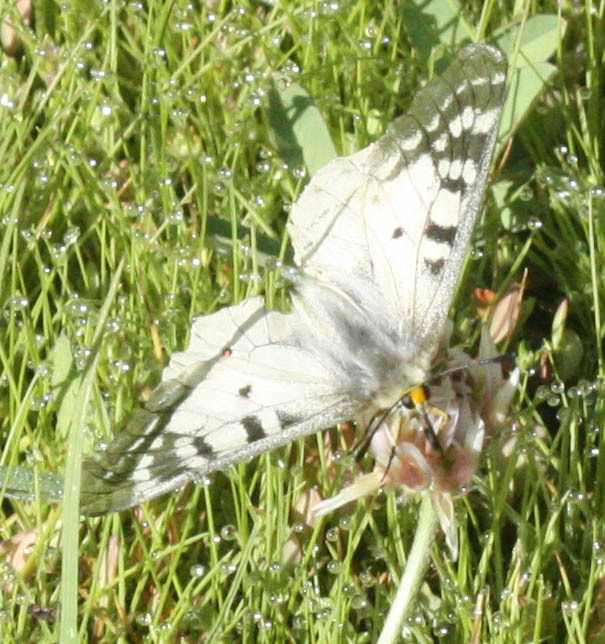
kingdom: Animalia
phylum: Arthropoda
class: Insecta
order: Lepidoptera
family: Papilionidae
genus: Parnassius
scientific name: Parnassius clodius
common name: American apollo
